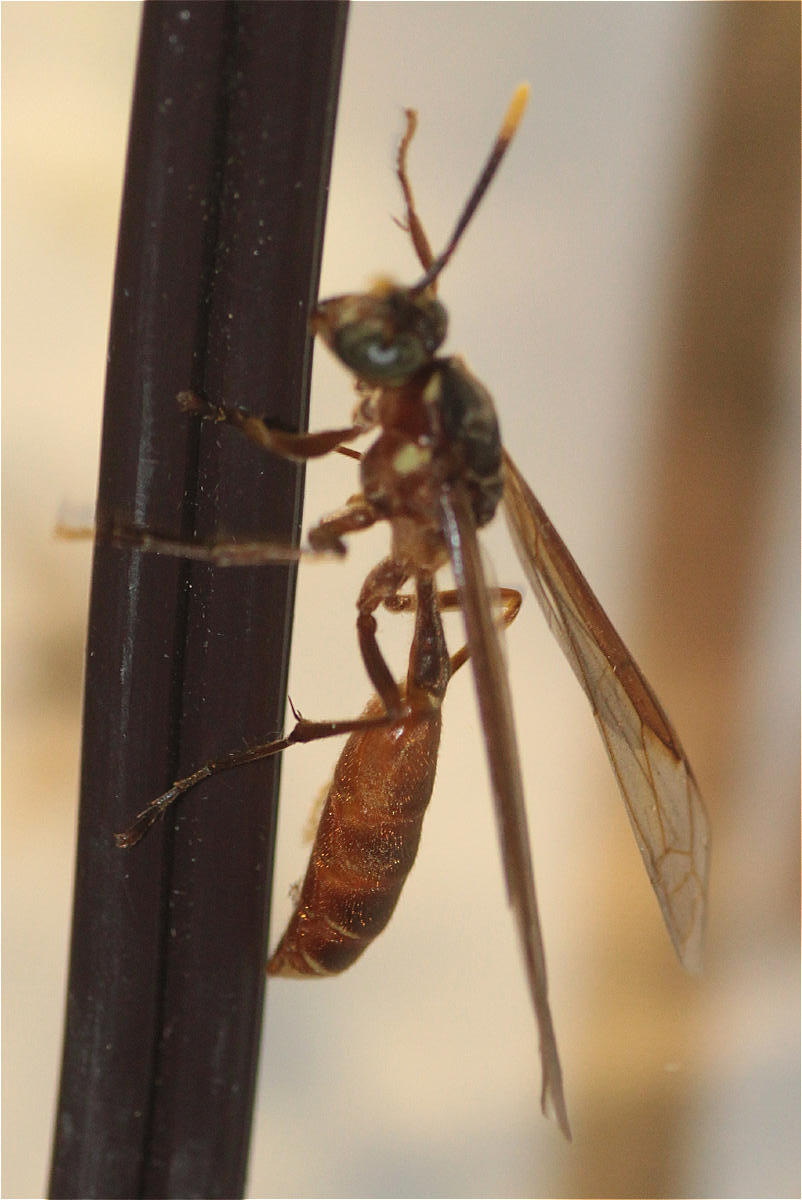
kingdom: Animalia
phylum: Arthropoda
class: Insecta
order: Hymenoptera
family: Vespidae
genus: Apoica
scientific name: Apoica pallida
